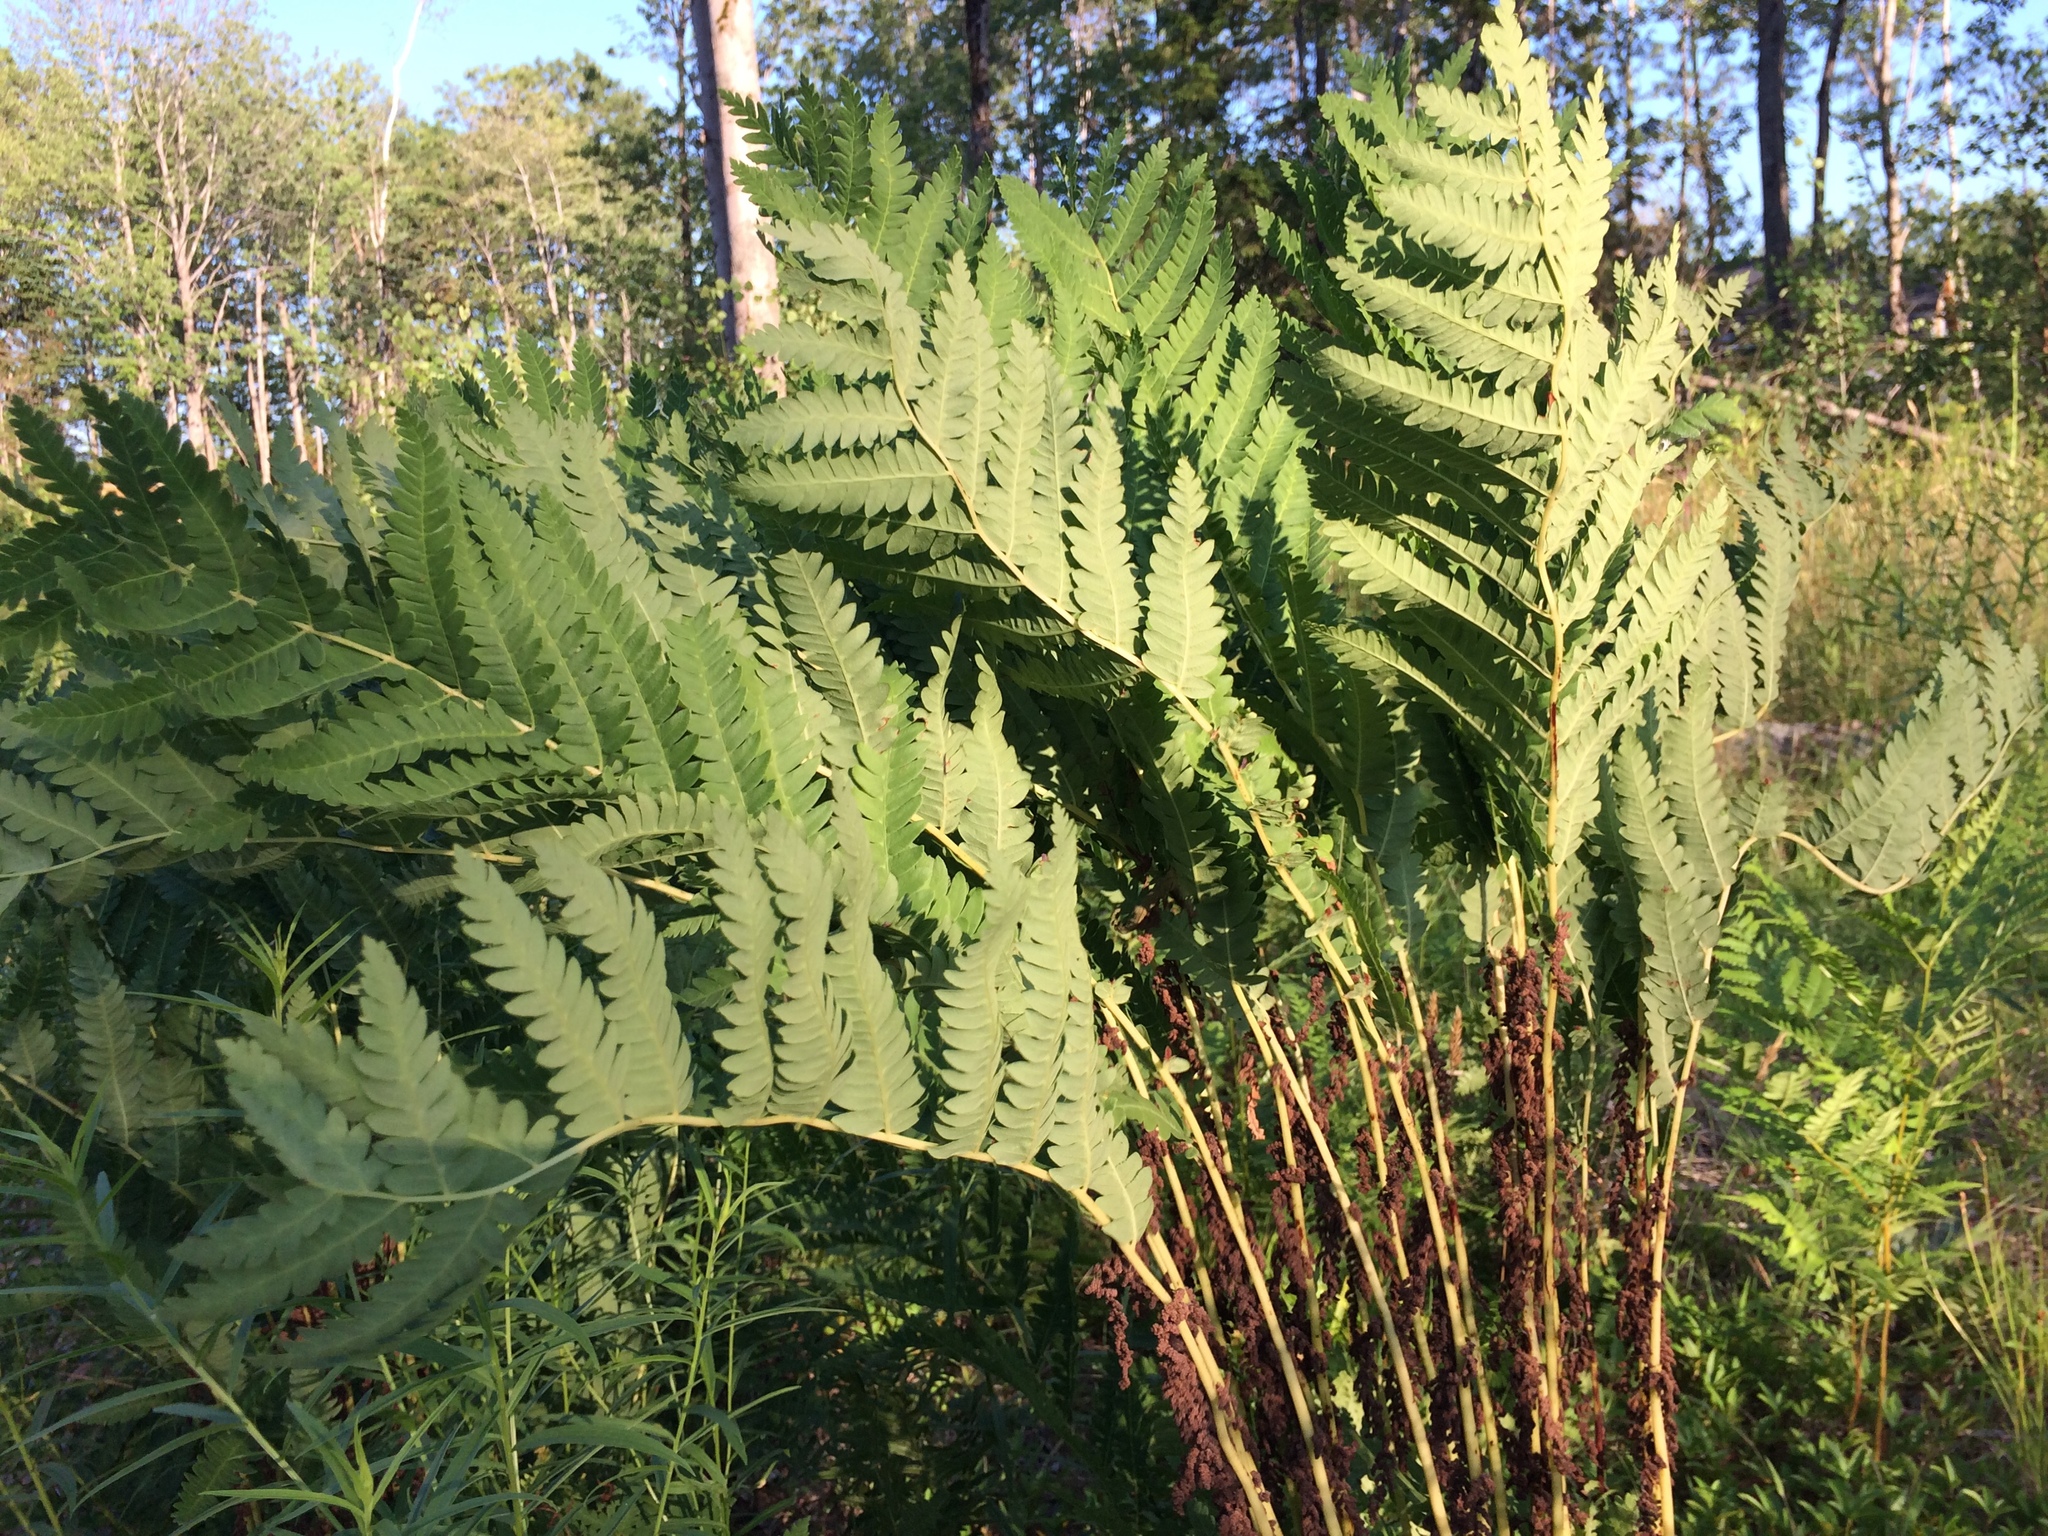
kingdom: Plantae
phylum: Tracheophyta
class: Polypodiopsida
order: Osmundales
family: Osmundaceae
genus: Claytosmunda
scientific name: Claytosmunda claytoniana
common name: Clayton's fern
